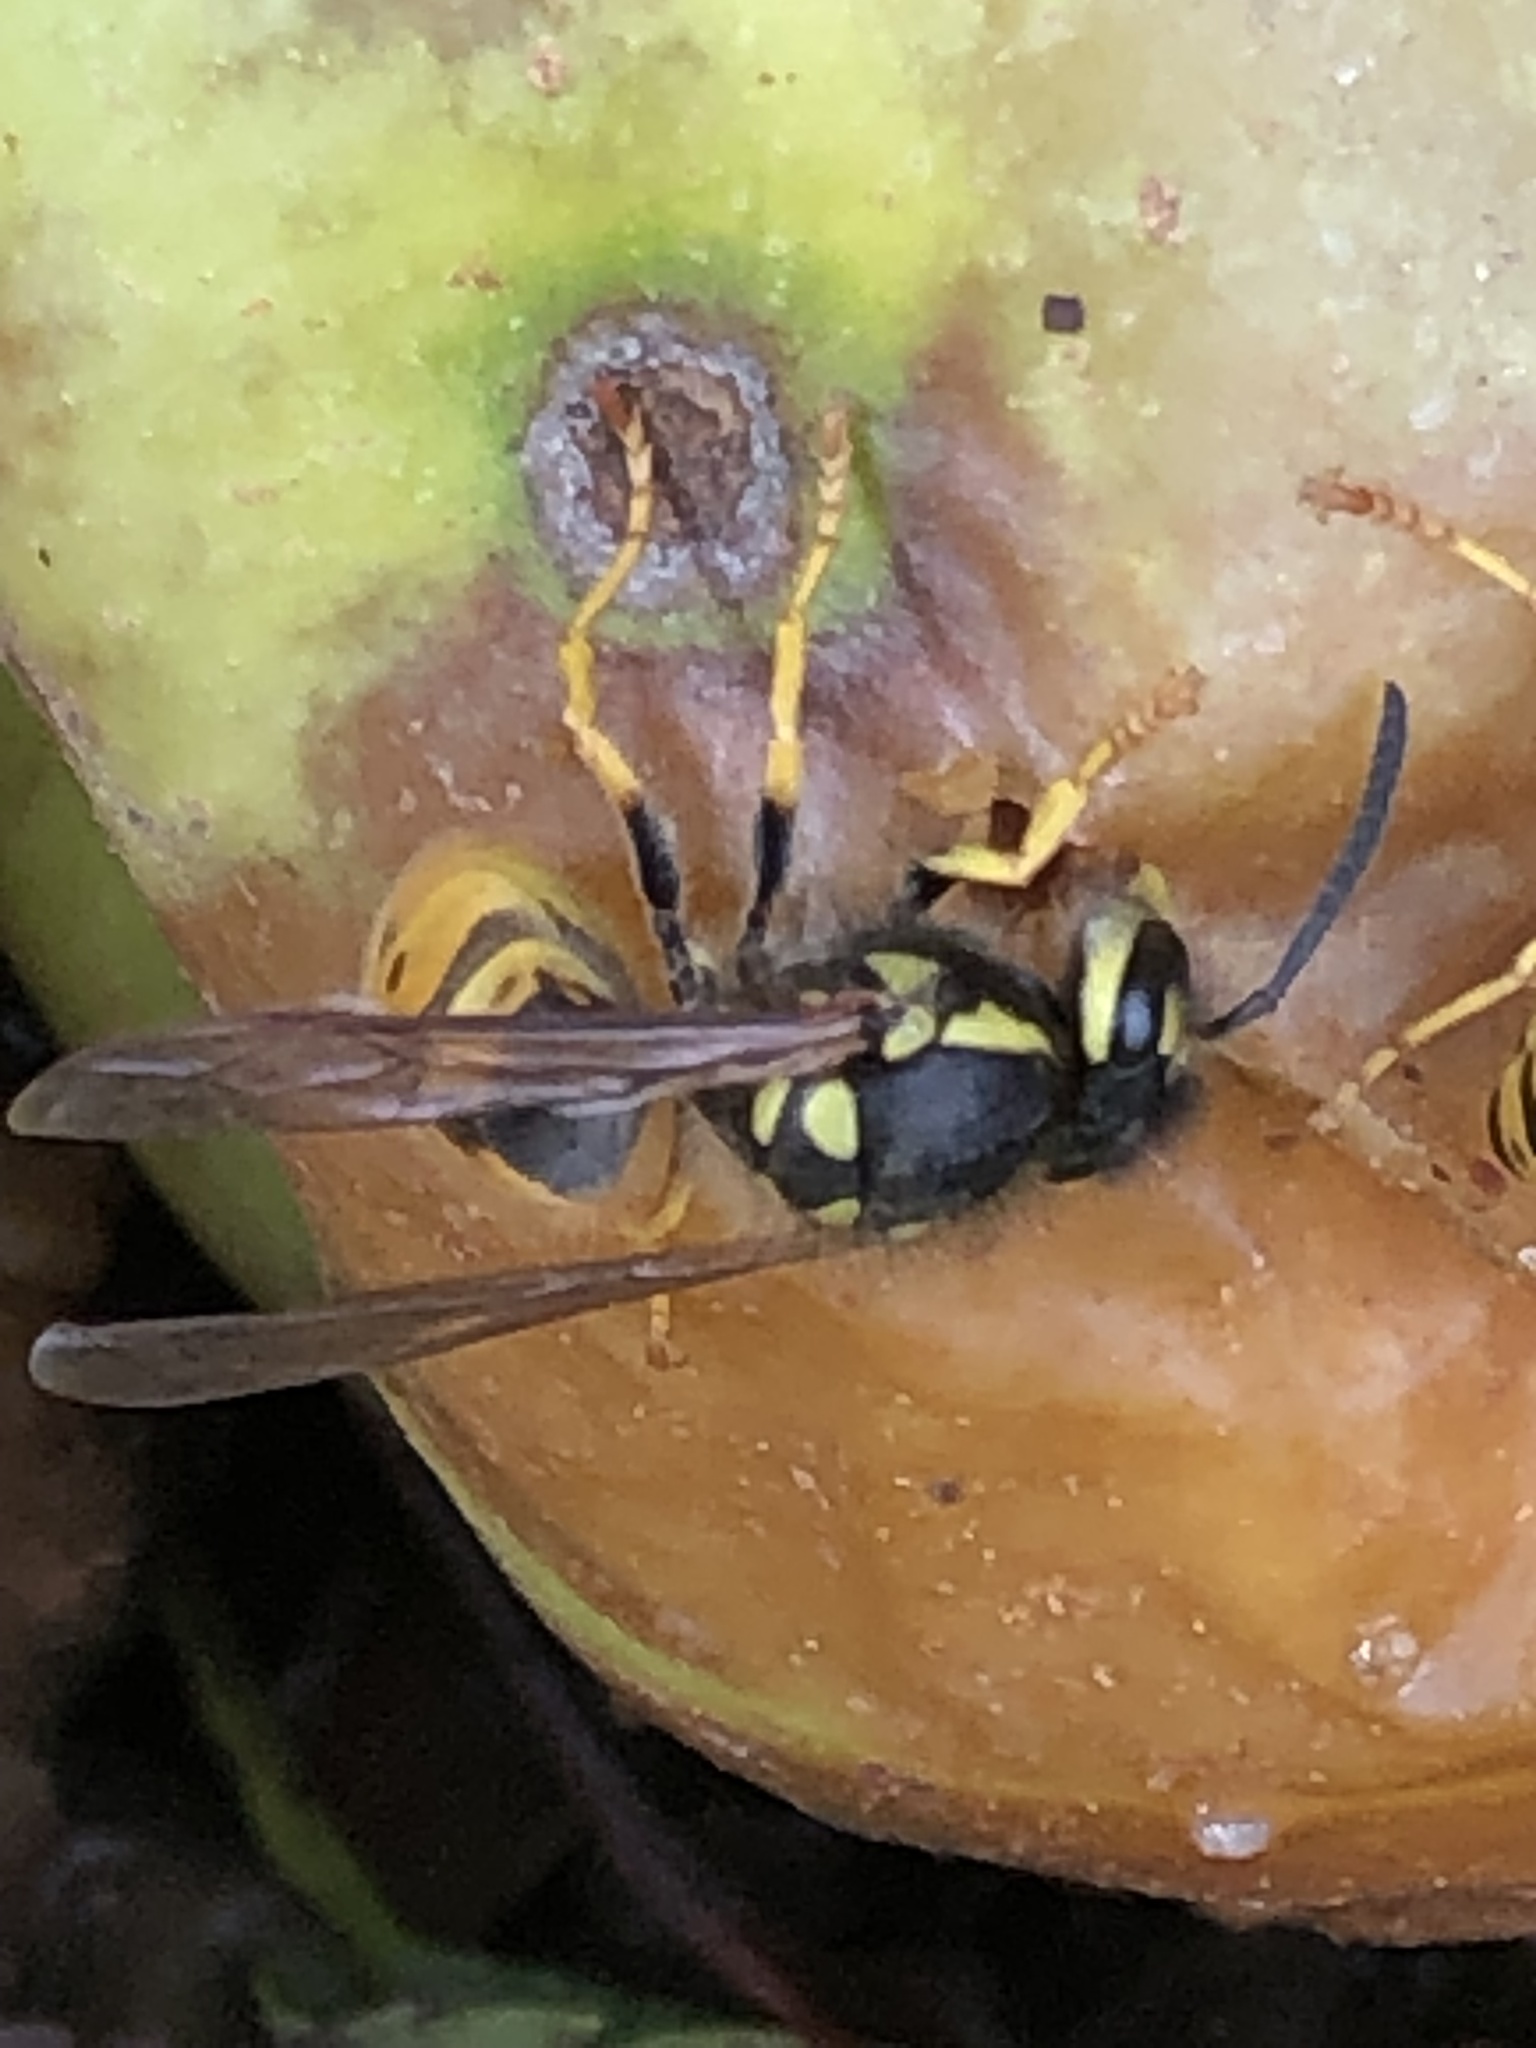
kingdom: Animalia
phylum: Arthropoda
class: Insecta
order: Hymenoptera
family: Vespidae
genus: Vespula
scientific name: Vespula germanica
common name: German wasp
